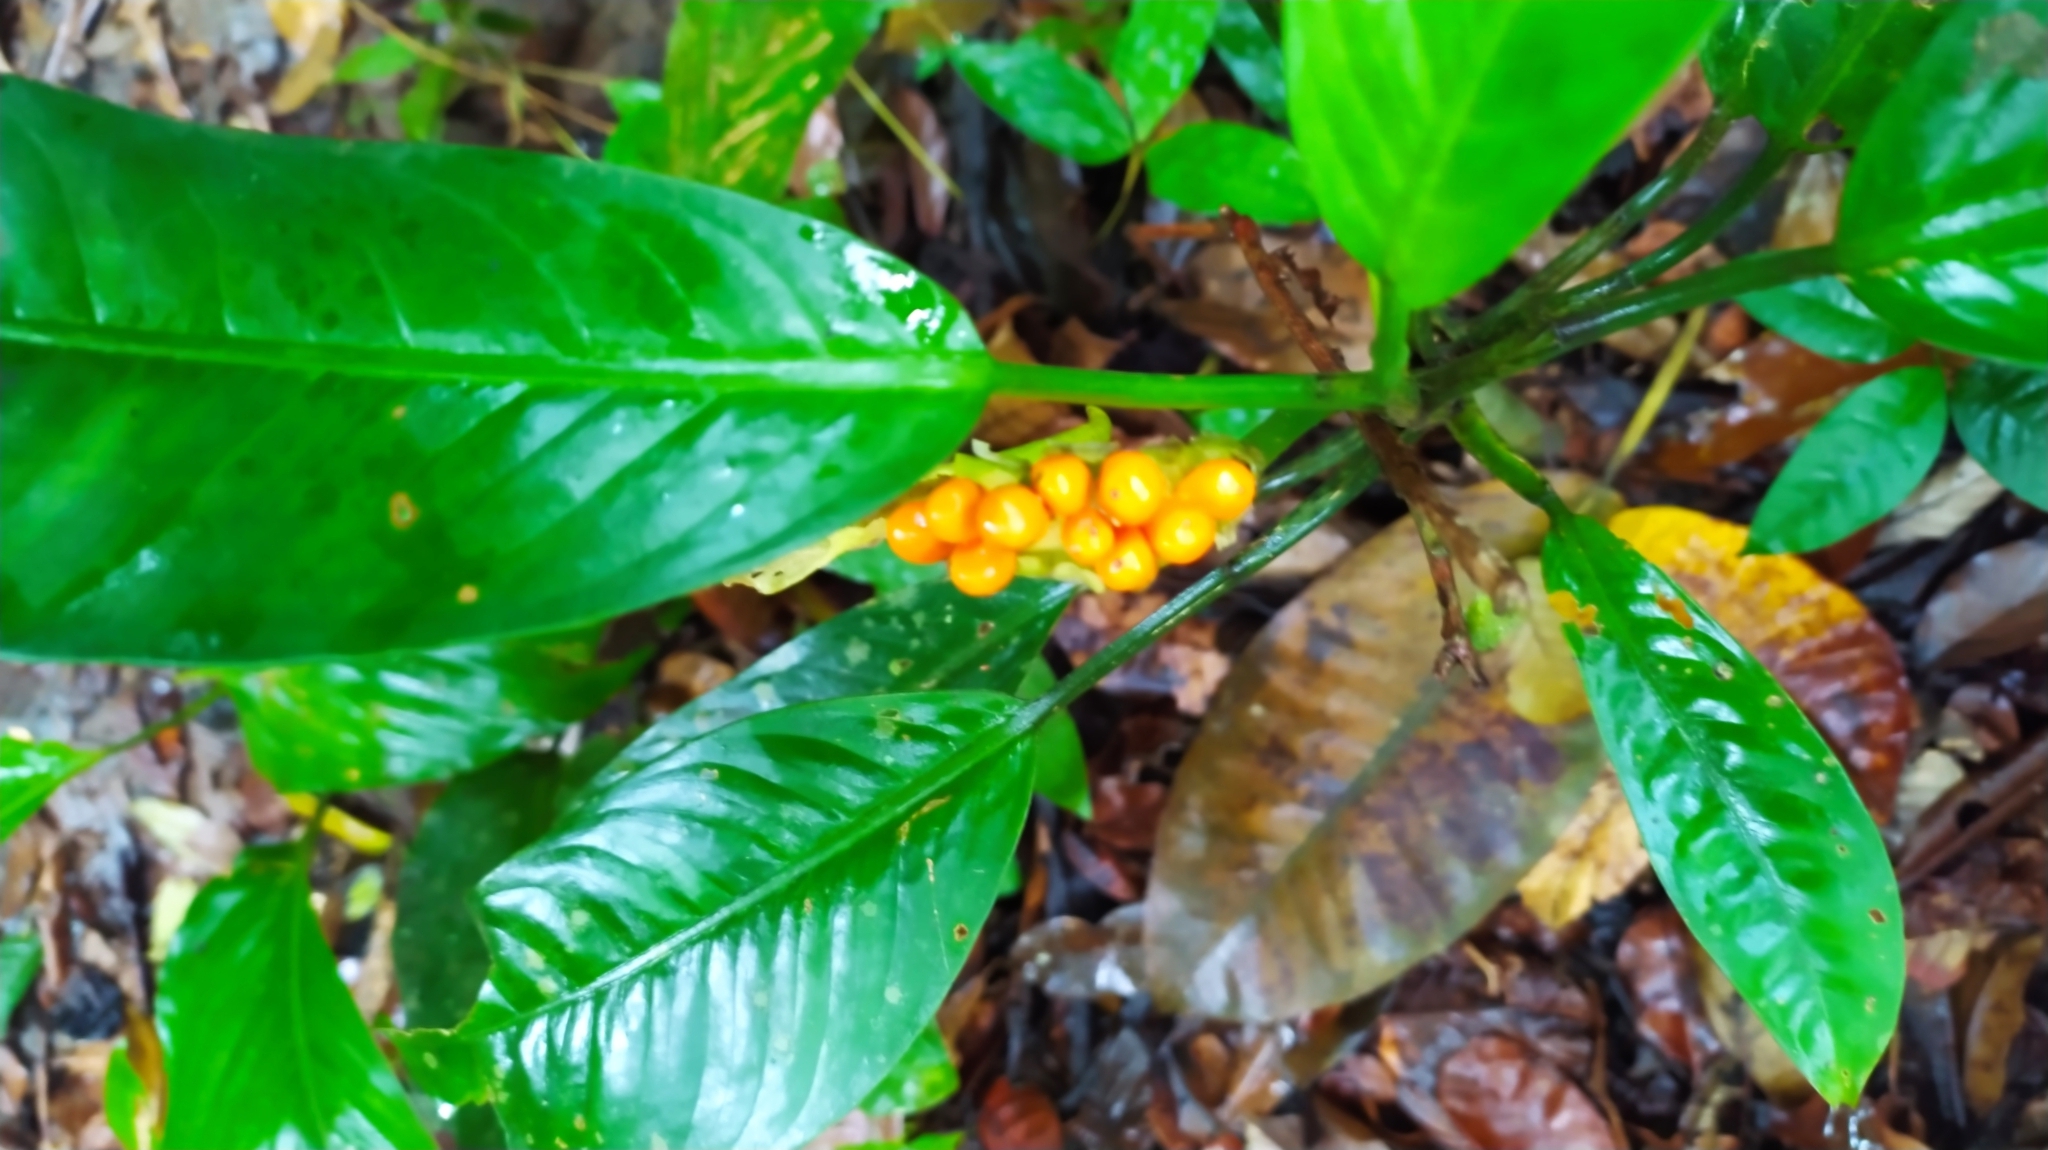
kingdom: Plantae
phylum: Tracheophyta
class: Liliopsida
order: Alismatales
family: Araceae
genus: Dieffenbachia
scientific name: Dieffenbachia
